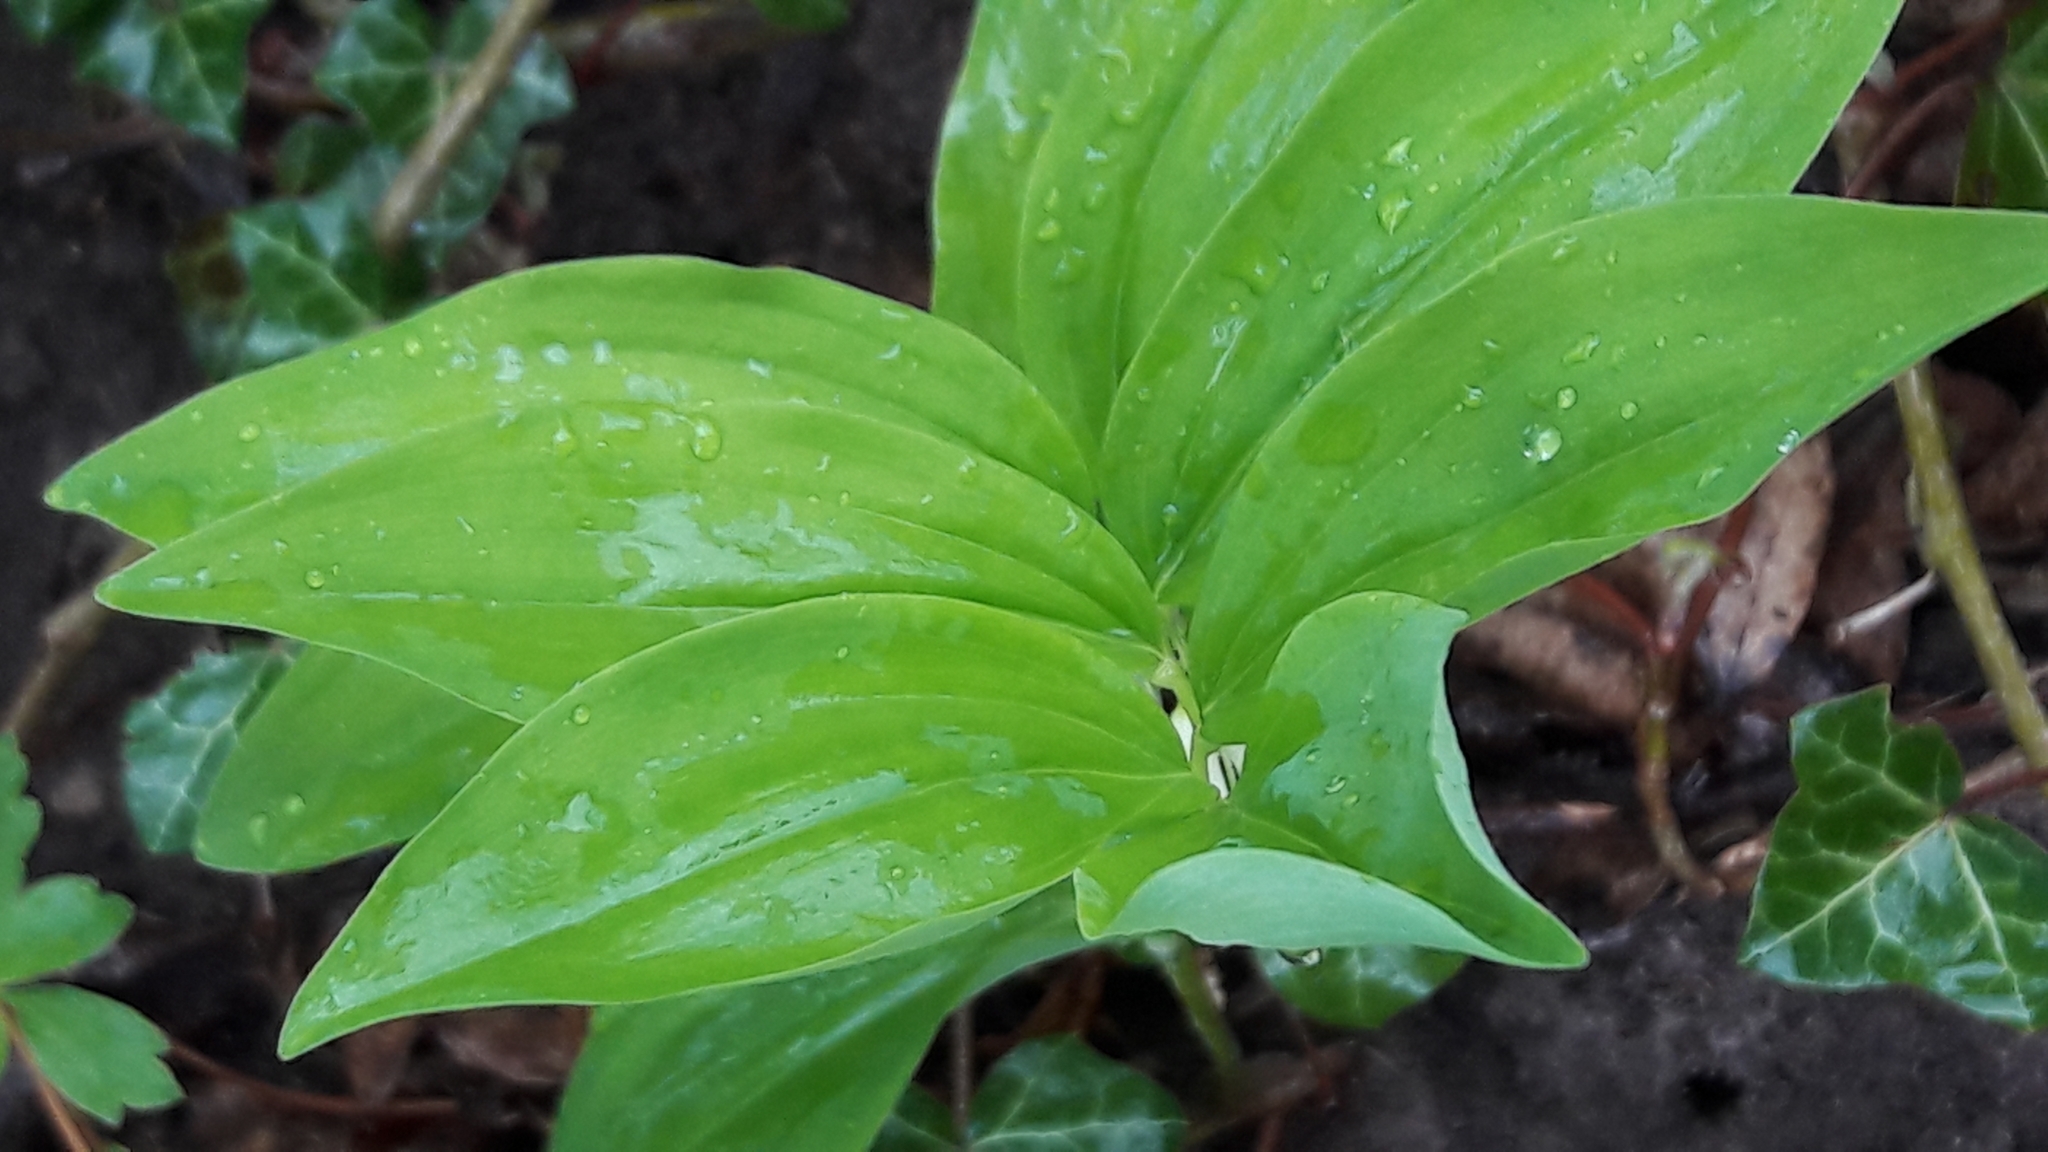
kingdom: Plantae
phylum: Tracheophyta
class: Liliopsida
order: Asparagales
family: Asparagaceae
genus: Polygonatum
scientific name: Polygonatum multiflorum
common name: Solomon's-seal
